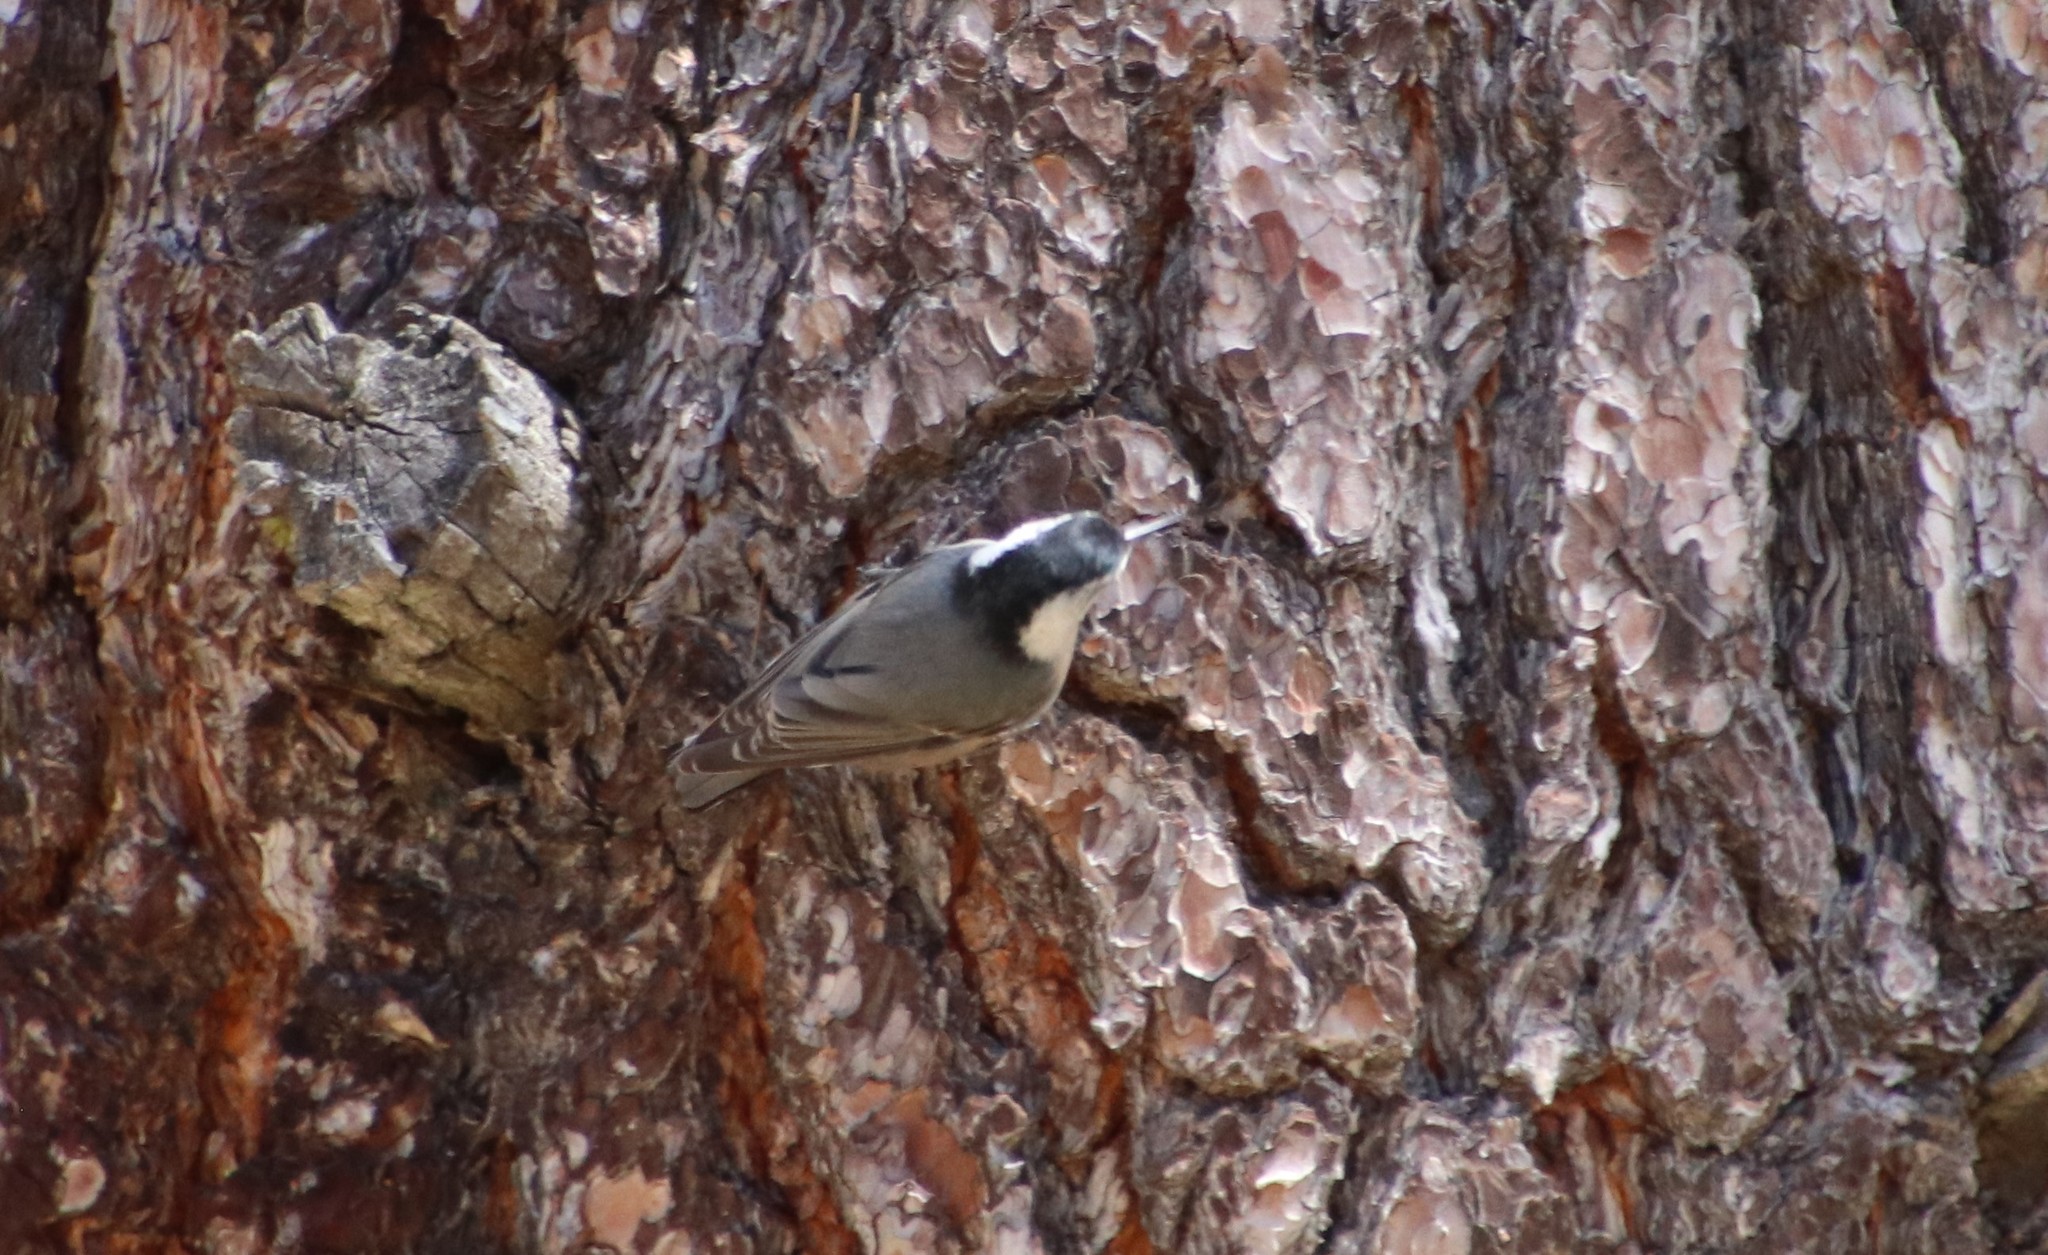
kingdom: Animalia
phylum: Chordata
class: Aves
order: Passeriformes
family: Sittidae
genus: Sitta
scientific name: Sitta carolinensis
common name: White-breasted nuthatch
